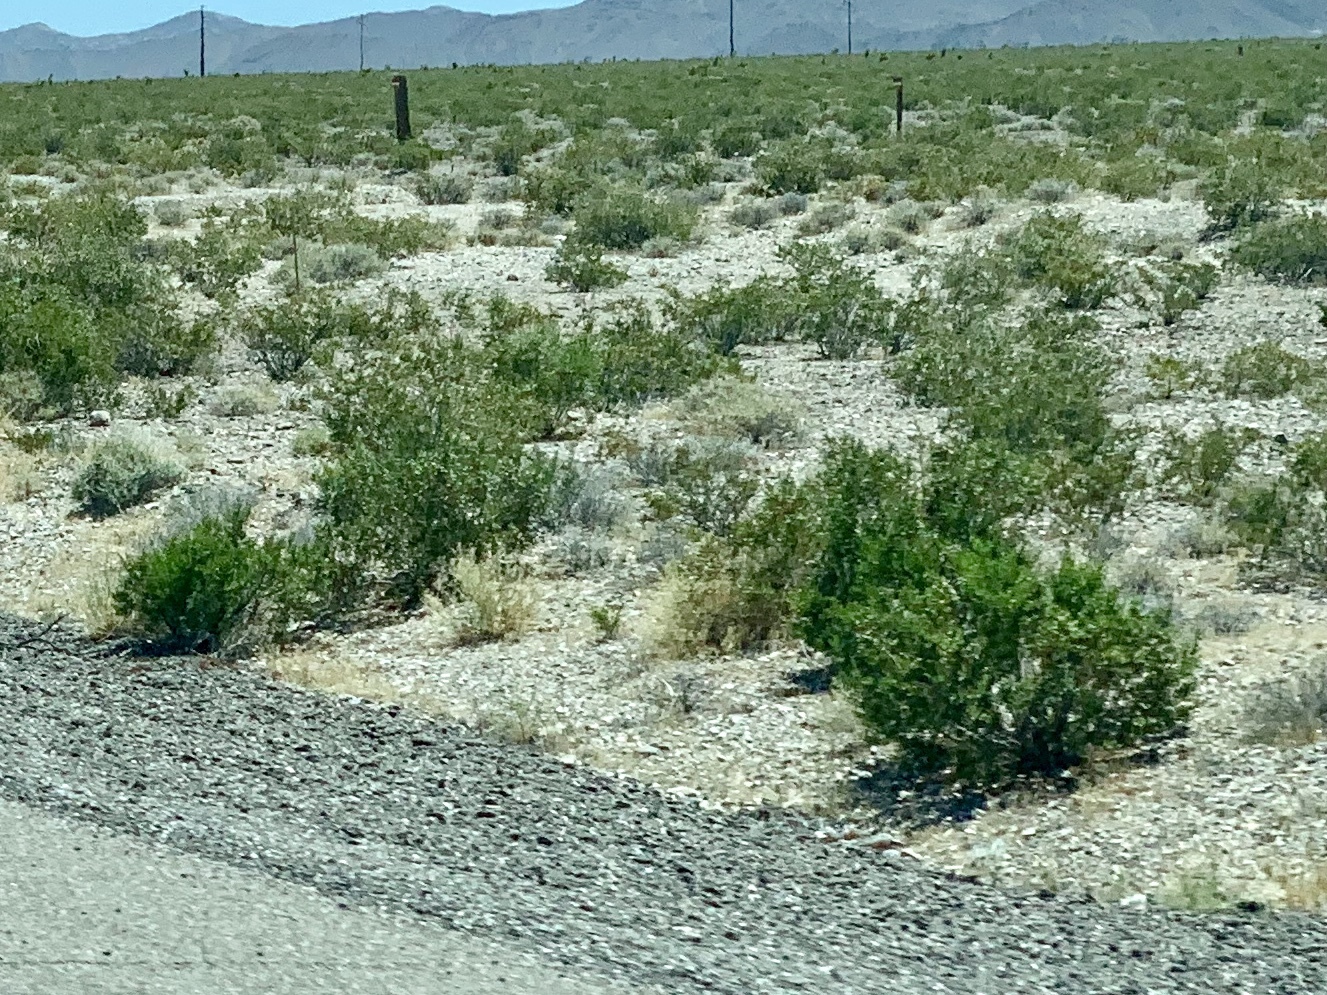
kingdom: Plantae
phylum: Tracheophyta
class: Magnoliopsida
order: Zygophyllales
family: Zygophyllaceae
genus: Larrea
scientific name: Larrea tridentata
